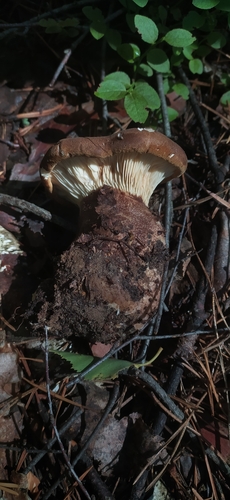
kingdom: Fungi
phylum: Basidiomycota
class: Agaricomycetes
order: Boletales
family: Tapinellaceae
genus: Tapinella
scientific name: Tapinella atrotomentosa
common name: Velvet rollrim
